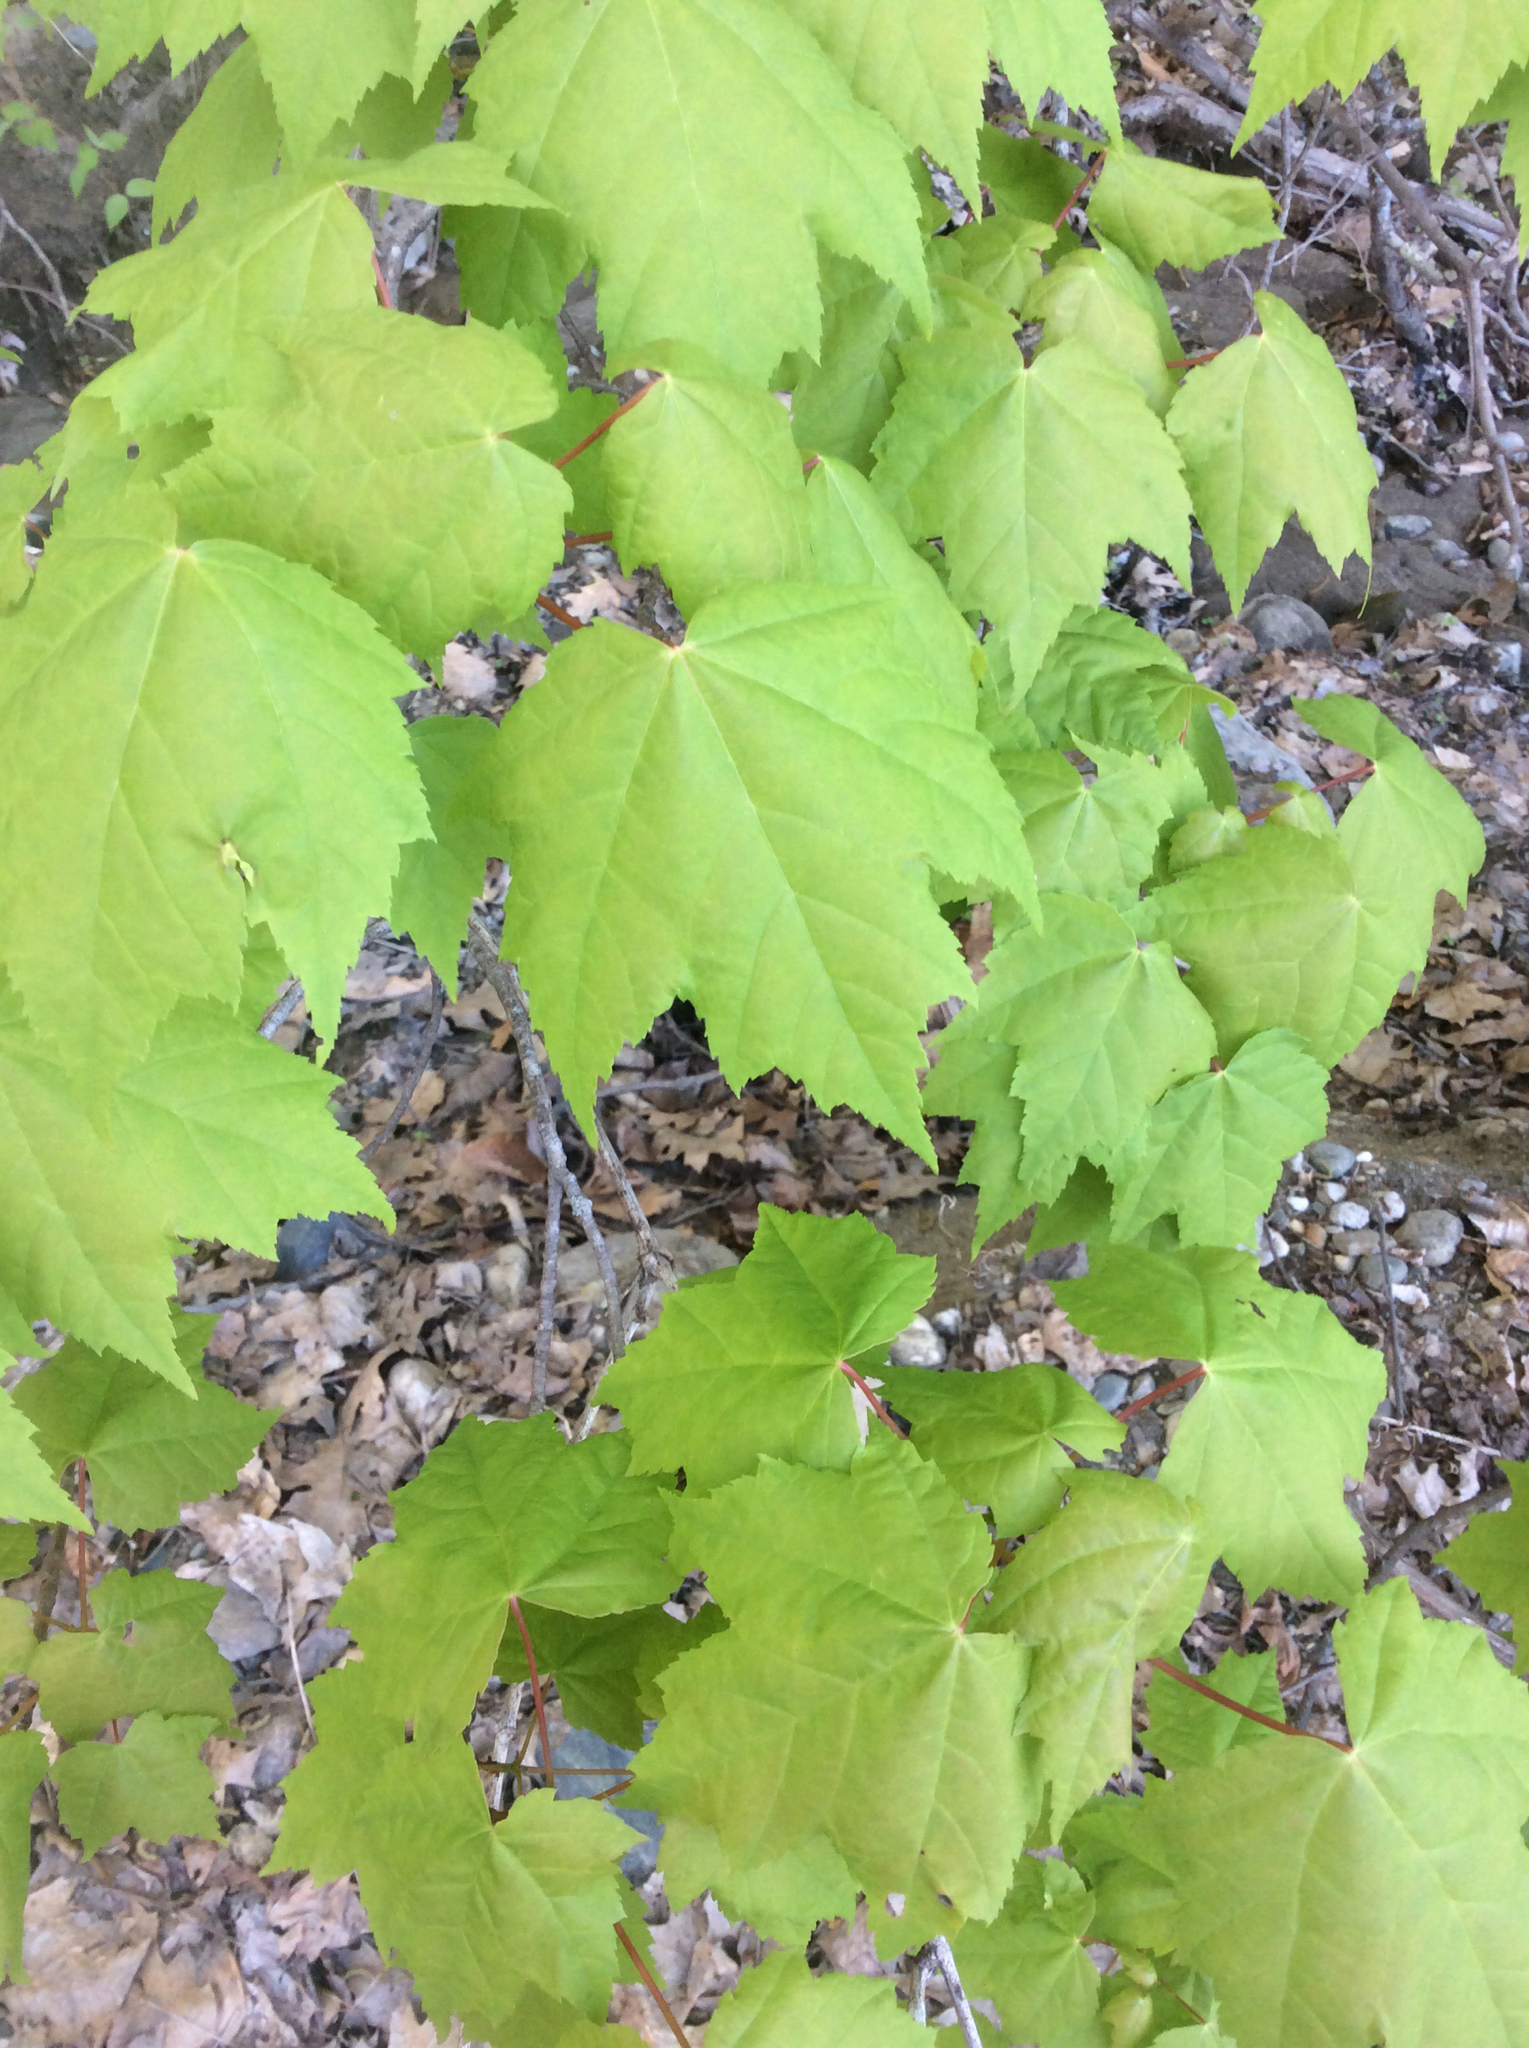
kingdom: Plantae
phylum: Tracheophyta
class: Magnoliopsida
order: Sapindales
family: Sapindaceae
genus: Acer
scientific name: Acer rubrum
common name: Red maple
